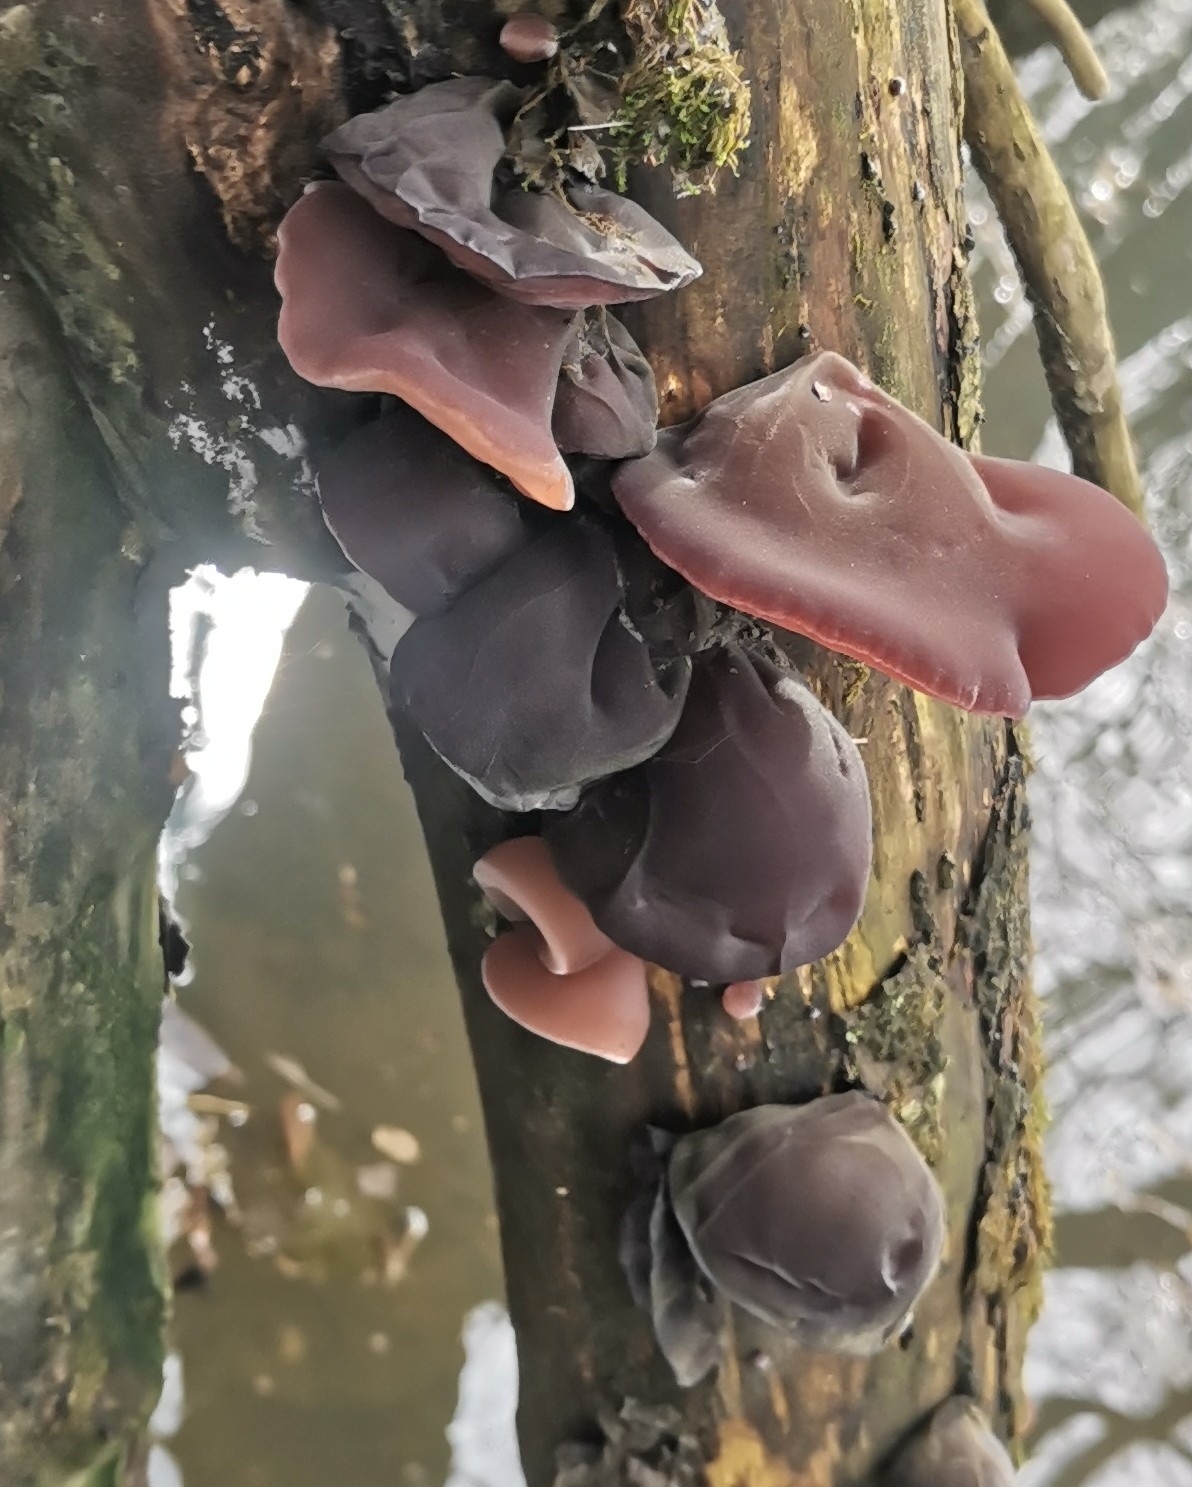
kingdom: Fungi
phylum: Basidiomycota
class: Agaricomycetes
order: Auriculariales
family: Auriculariaceae
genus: Auricularia
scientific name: Auricularia auricula-judae
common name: Jelly ear
